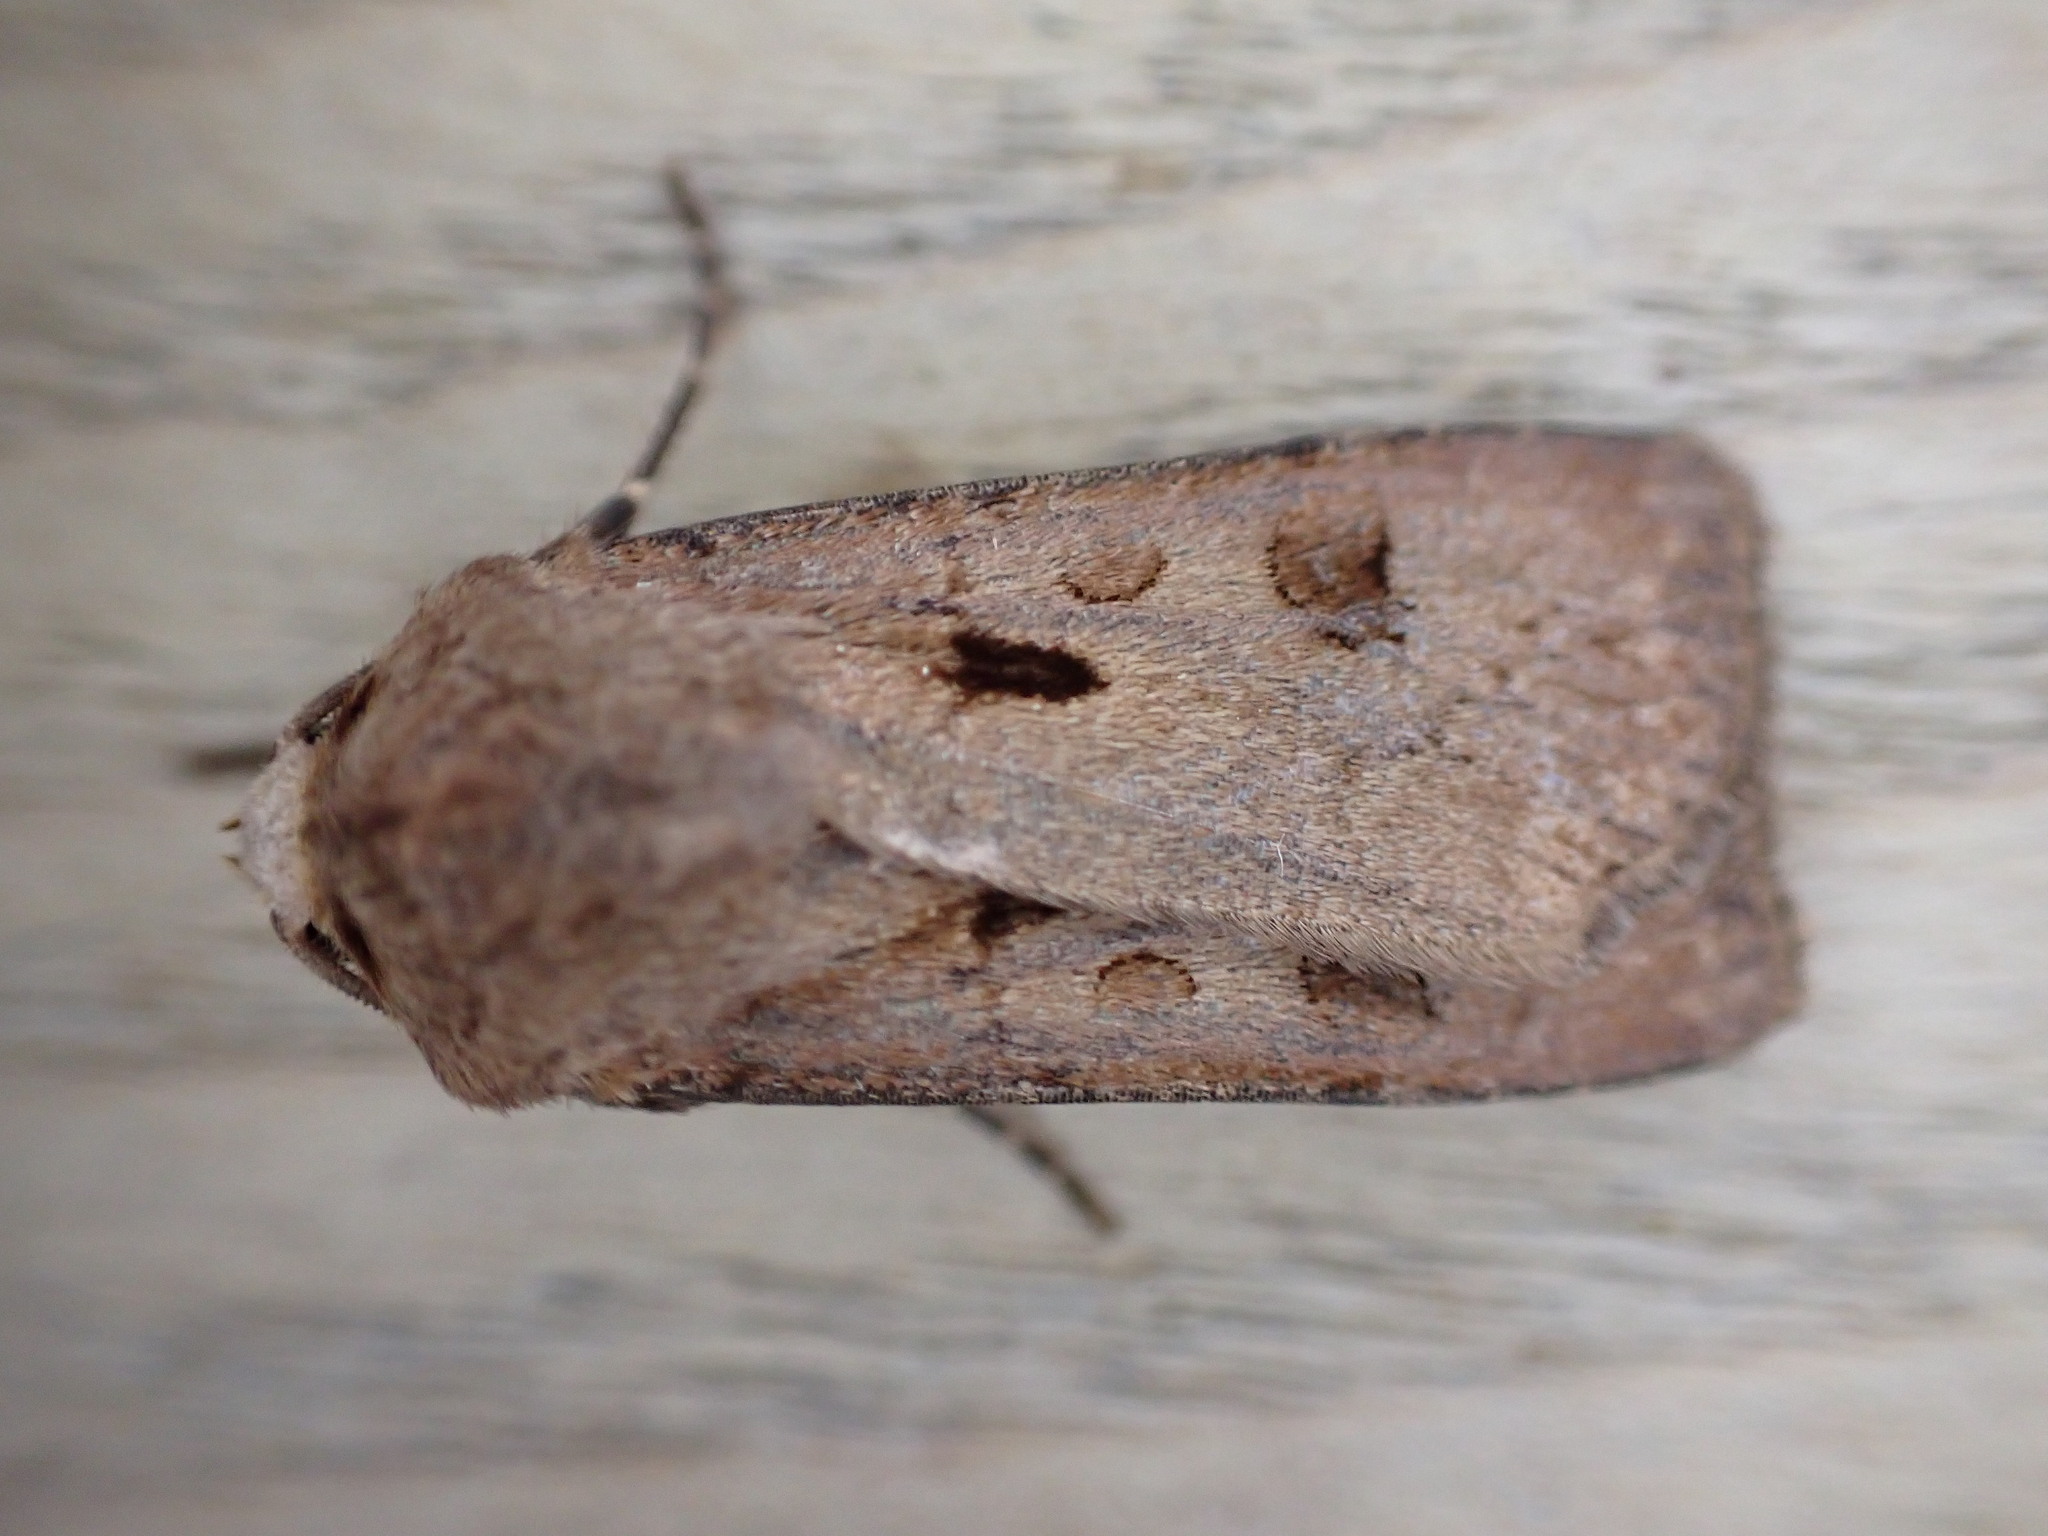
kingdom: Animalia
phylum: Arthropoda
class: Insecta
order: Lepidoptera
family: Noctuidae
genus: Agrotis
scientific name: Agrotis exclamationis
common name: Heart and dart
